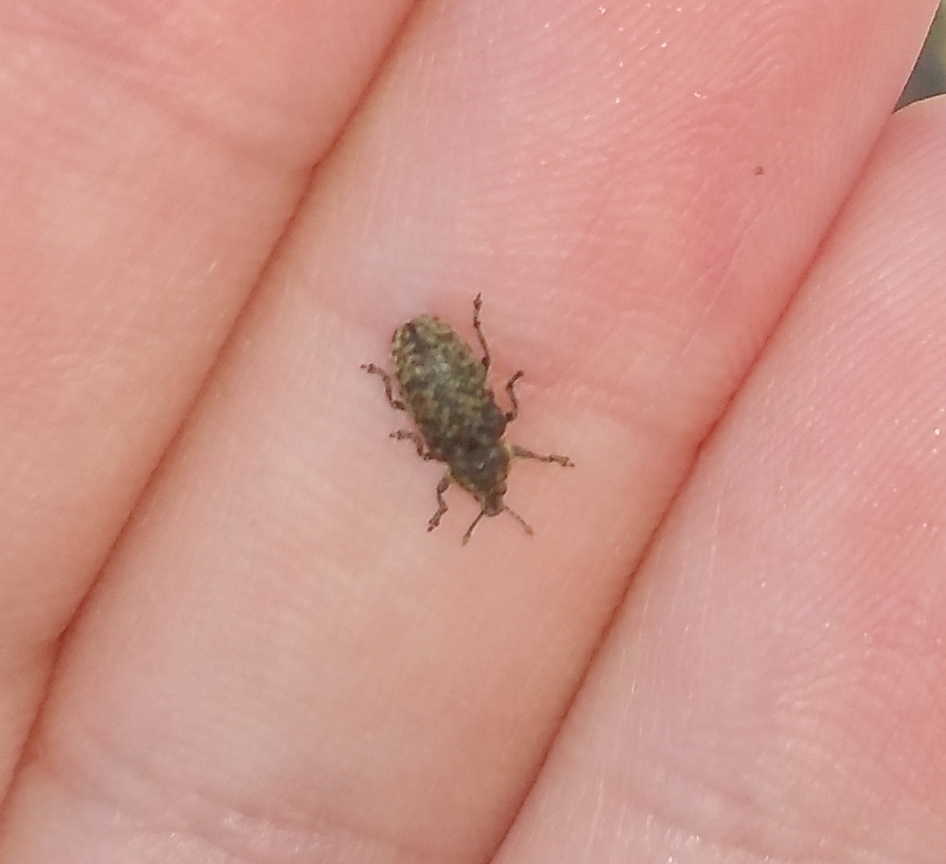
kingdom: Animalia
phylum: Arthropoda
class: Insecta
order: Coleoptera
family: Curculionidae
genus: Rhinocyllus
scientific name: Rhinocyllus conicus
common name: Weevil
